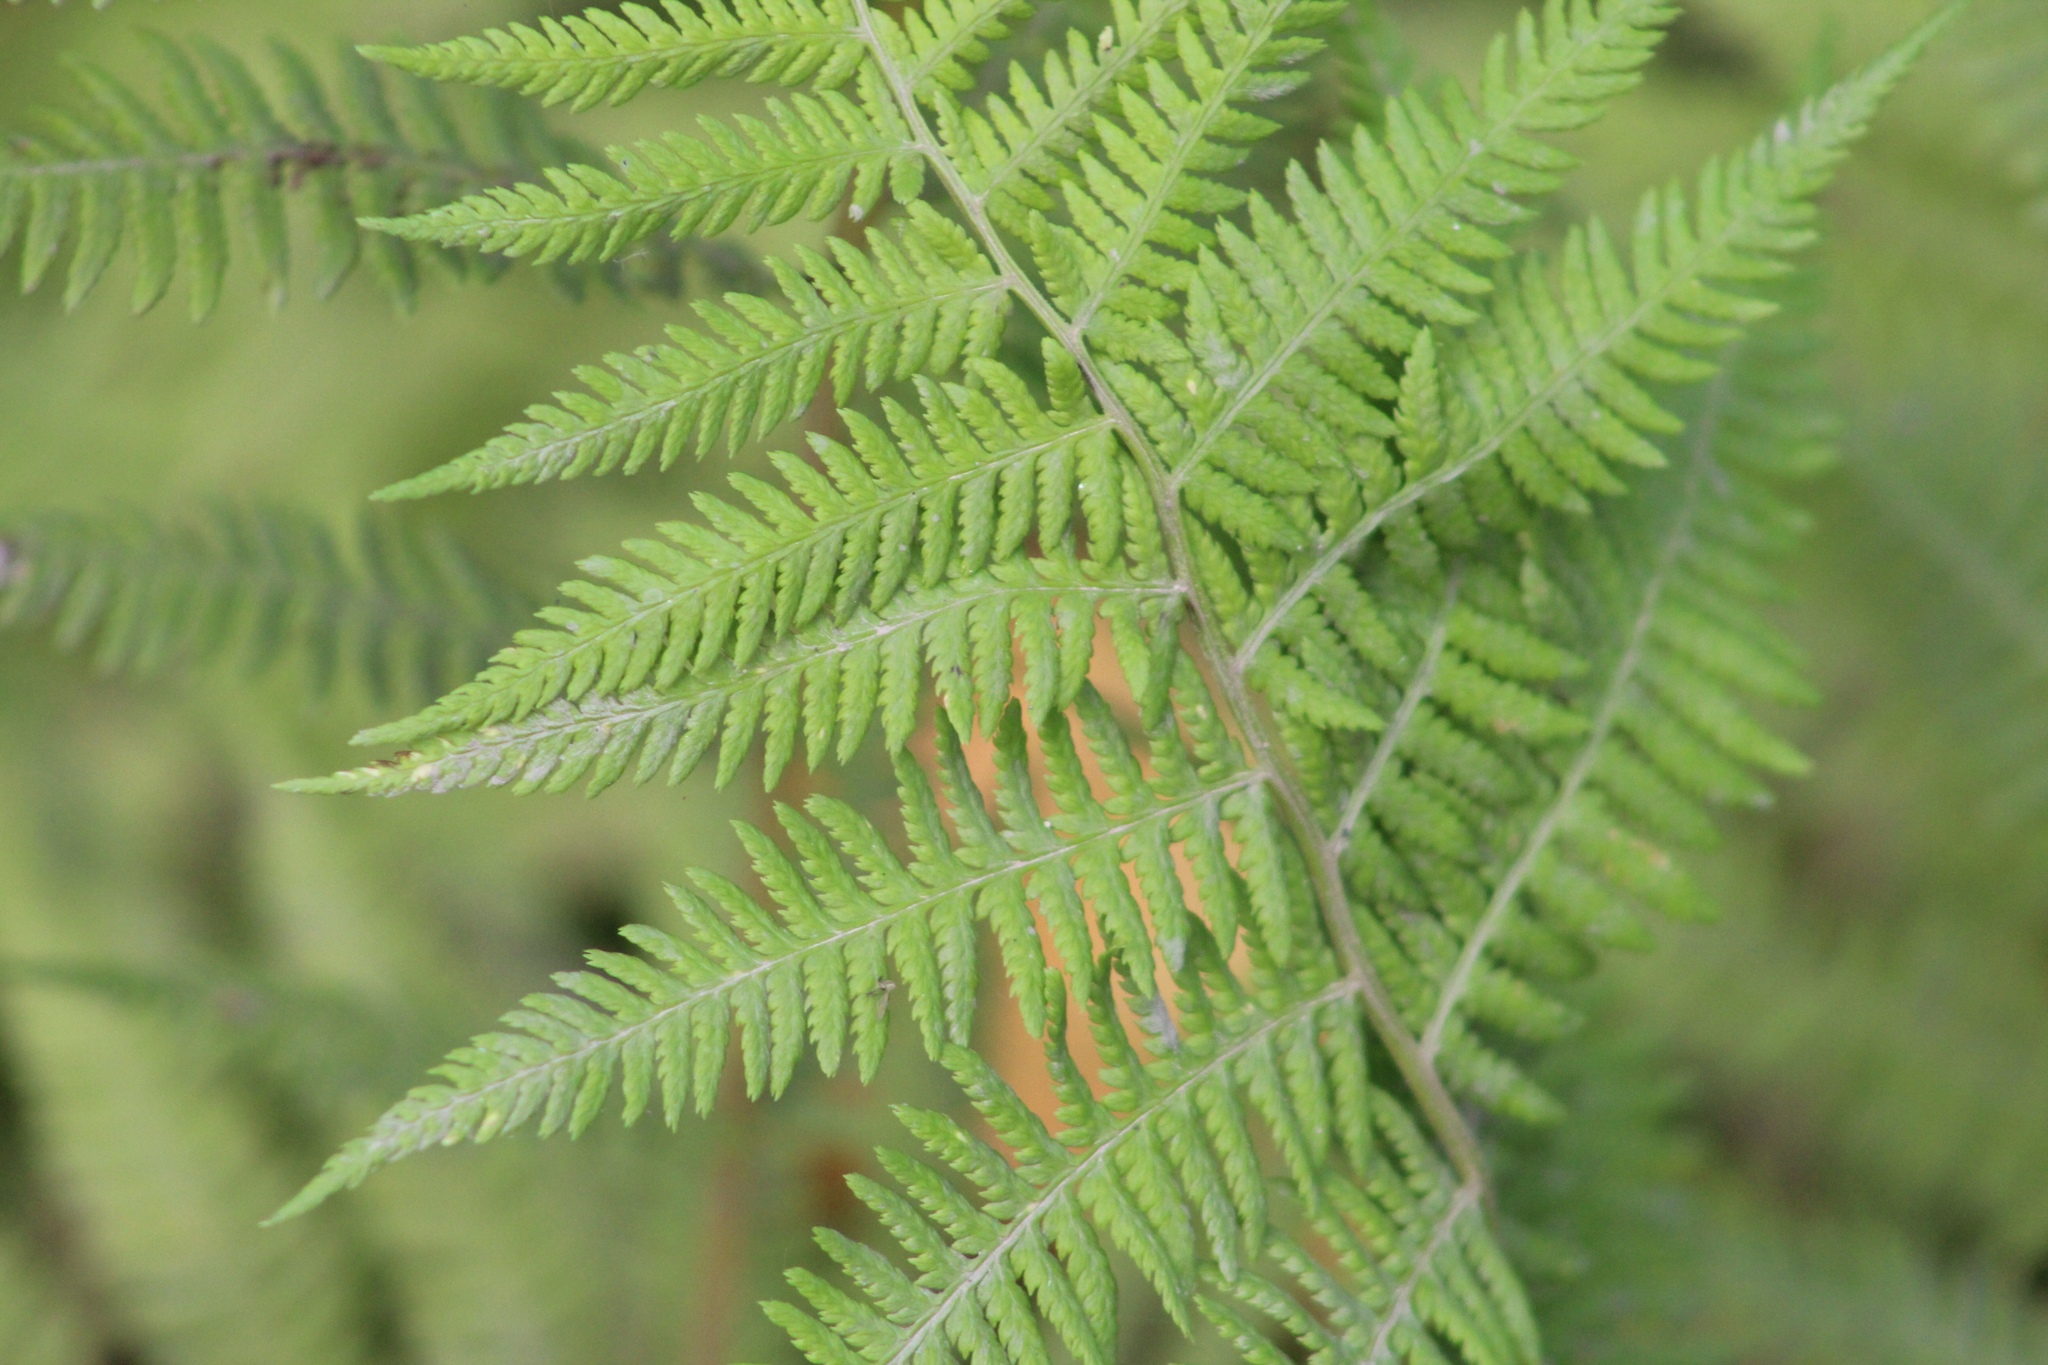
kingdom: Plantae
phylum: Tracheophyta
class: Polypodiopsida
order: Polypodiales
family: Athyriaceae
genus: Athyrium
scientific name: Athyrium angustum
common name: Northern lady fern
